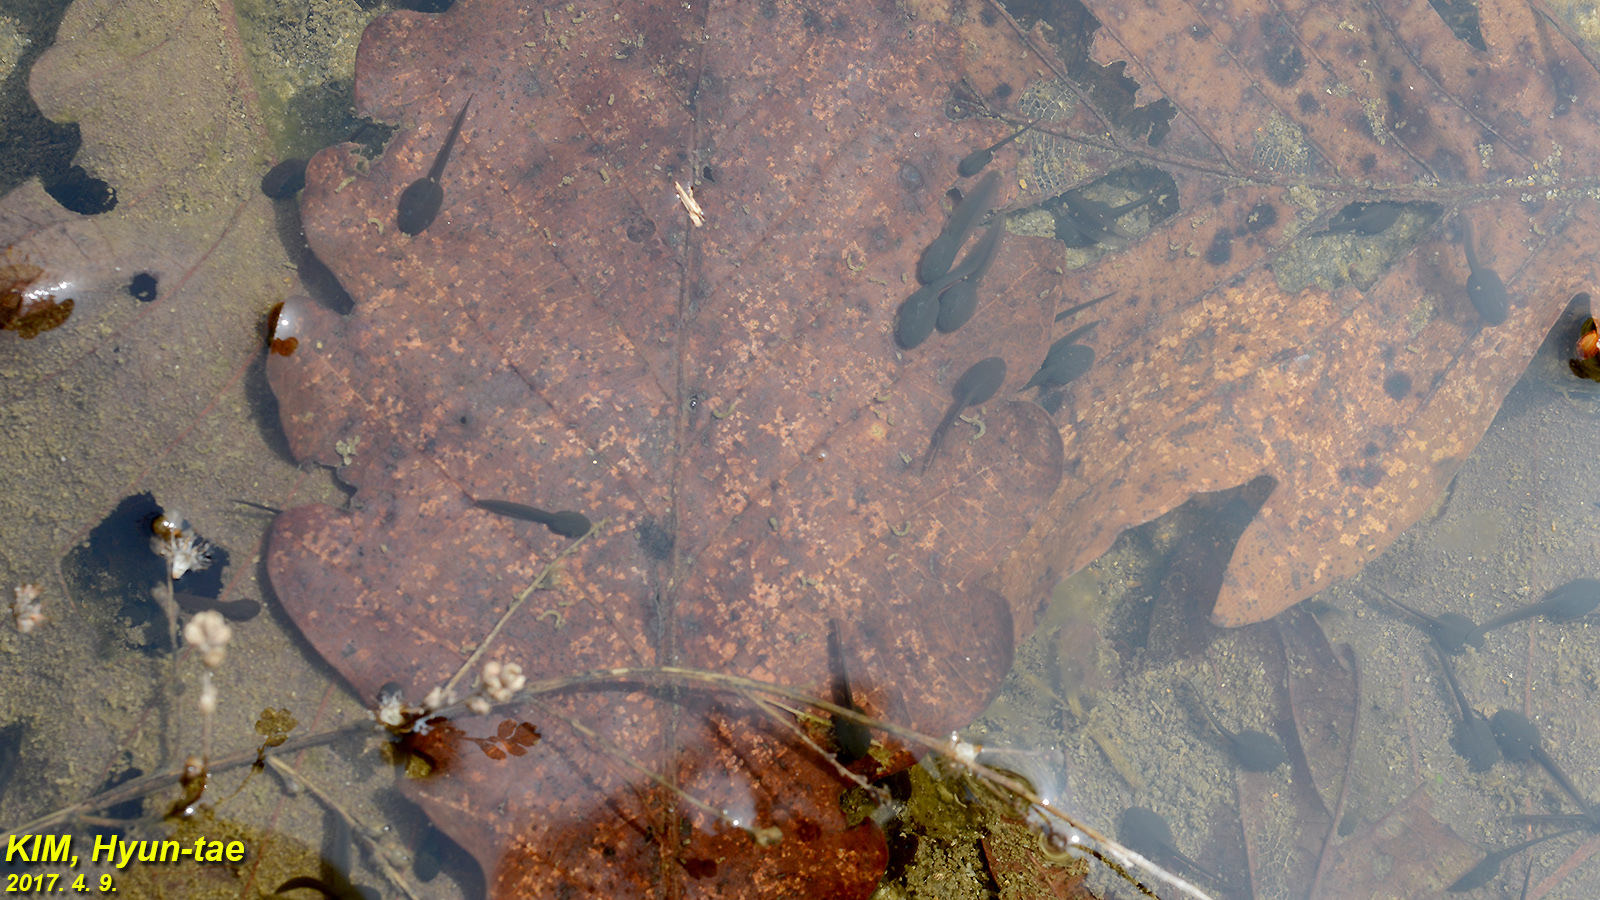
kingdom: Animalia
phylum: Chordata
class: Amphibia
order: Anura
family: Ranidae
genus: Rana
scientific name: Rana huanrenensis
